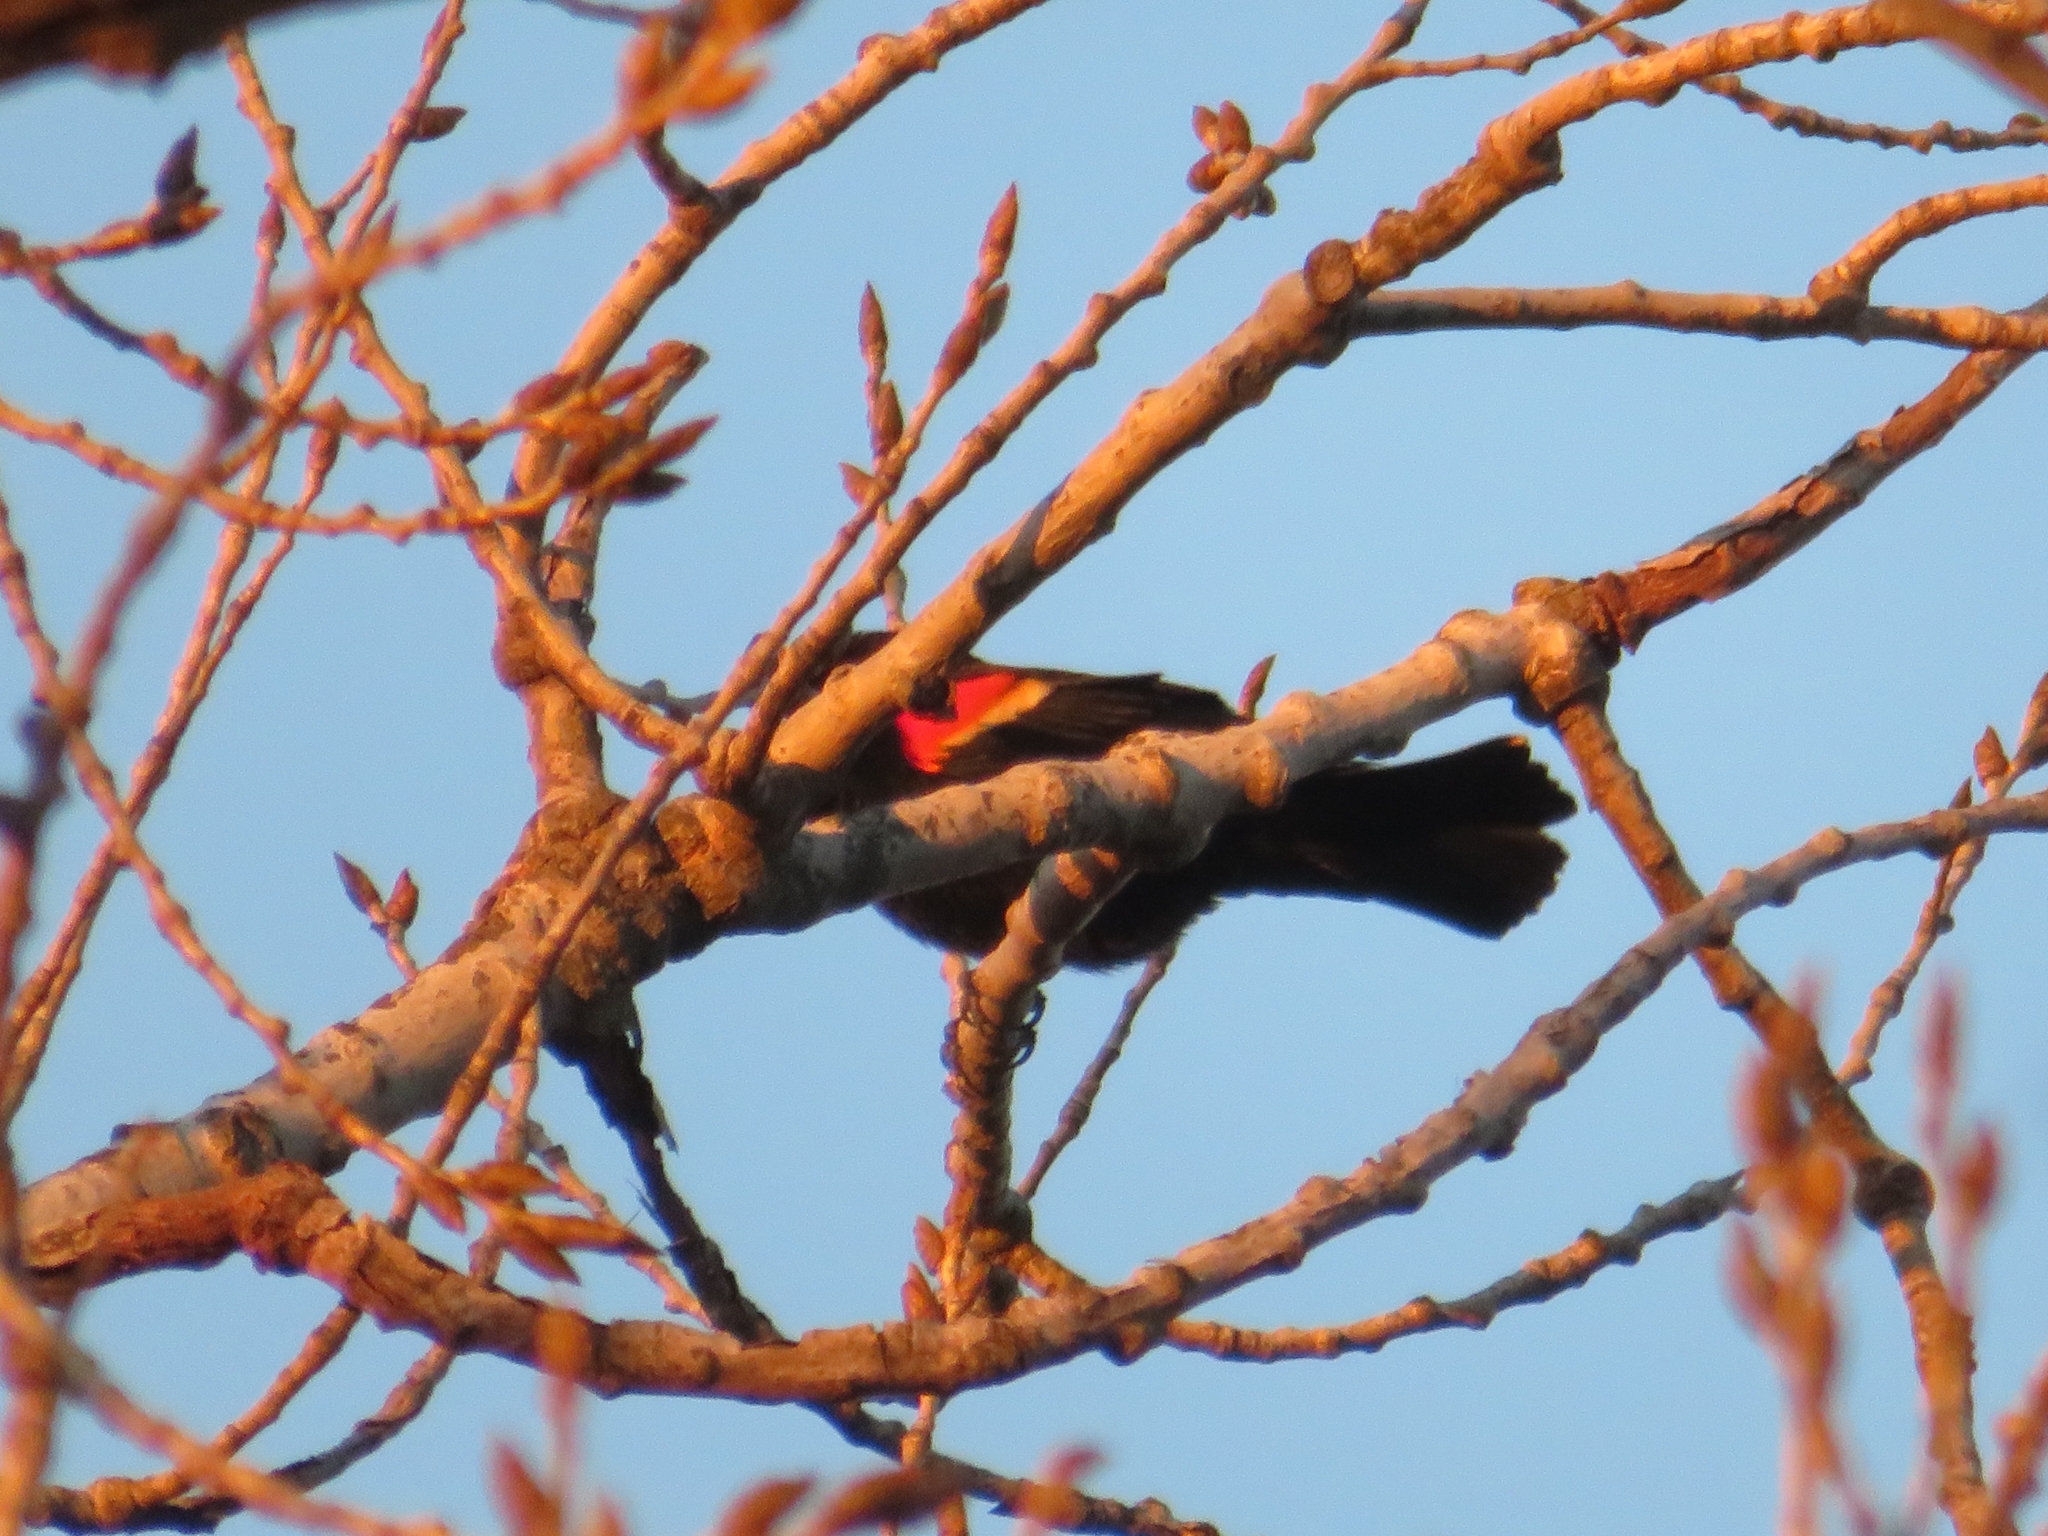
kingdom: Animalia
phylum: Chordata
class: Aves
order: Passeriformes
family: Icteridae
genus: Agelaius
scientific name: Agelaius phoeniceus
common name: Red-winged blackbird
